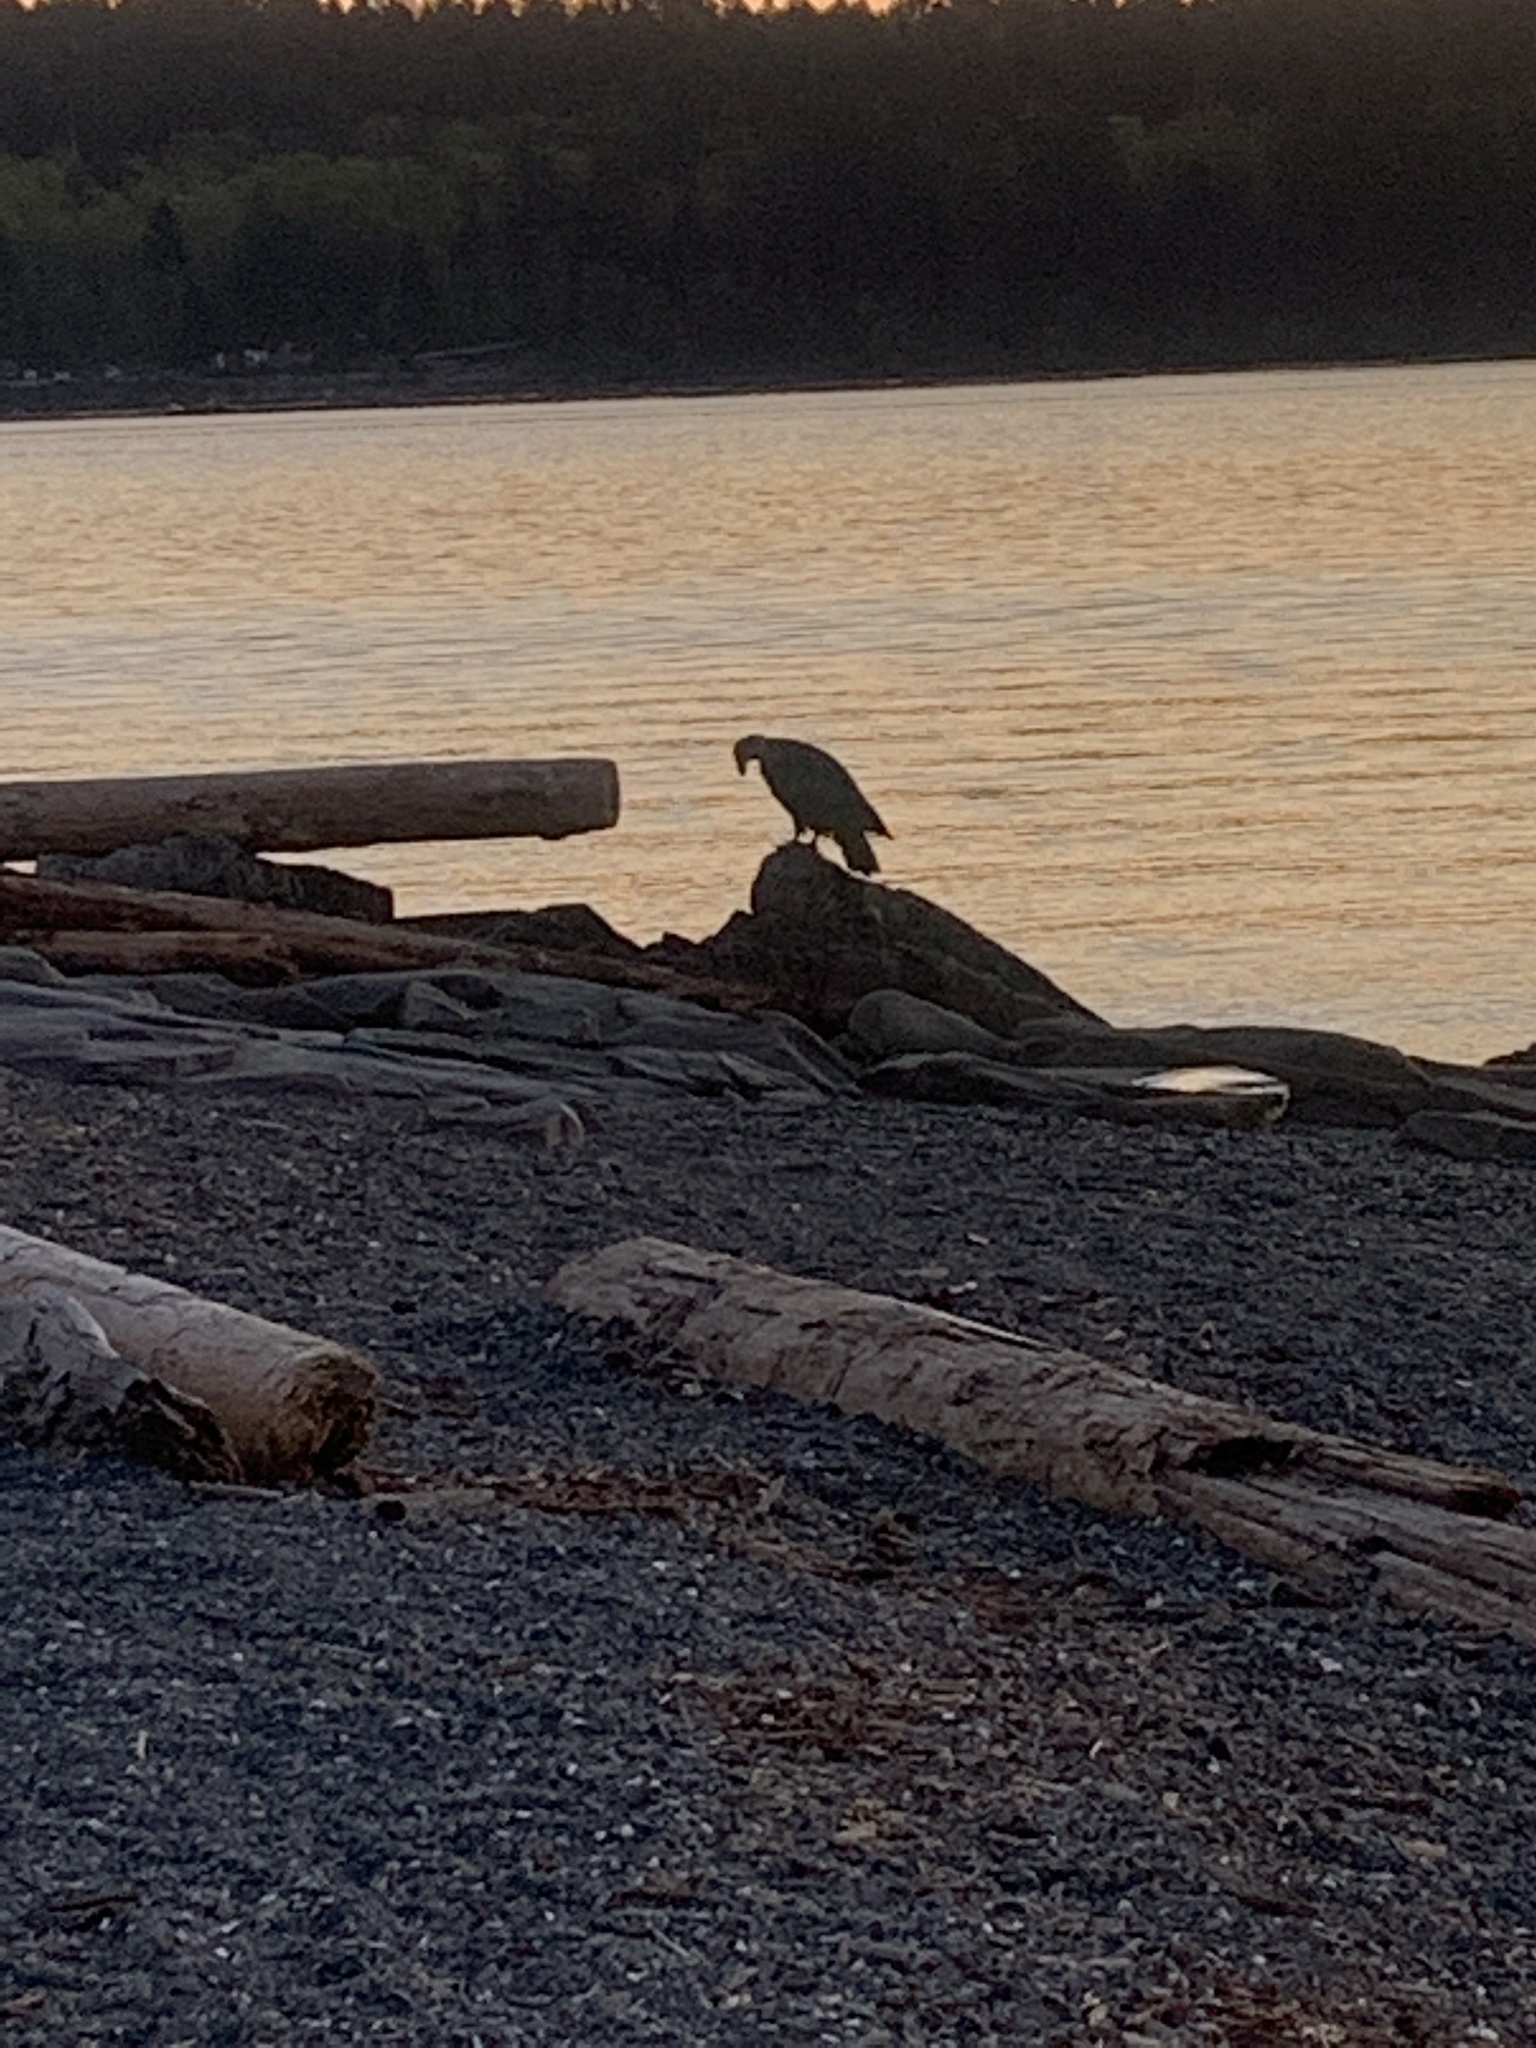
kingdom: Animalia
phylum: Chordata
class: Aves
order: Accipitriformes
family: Accipitridae
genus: Haliaeetus
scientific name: Haliaeetus leucocephalus
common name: Bald eagle
